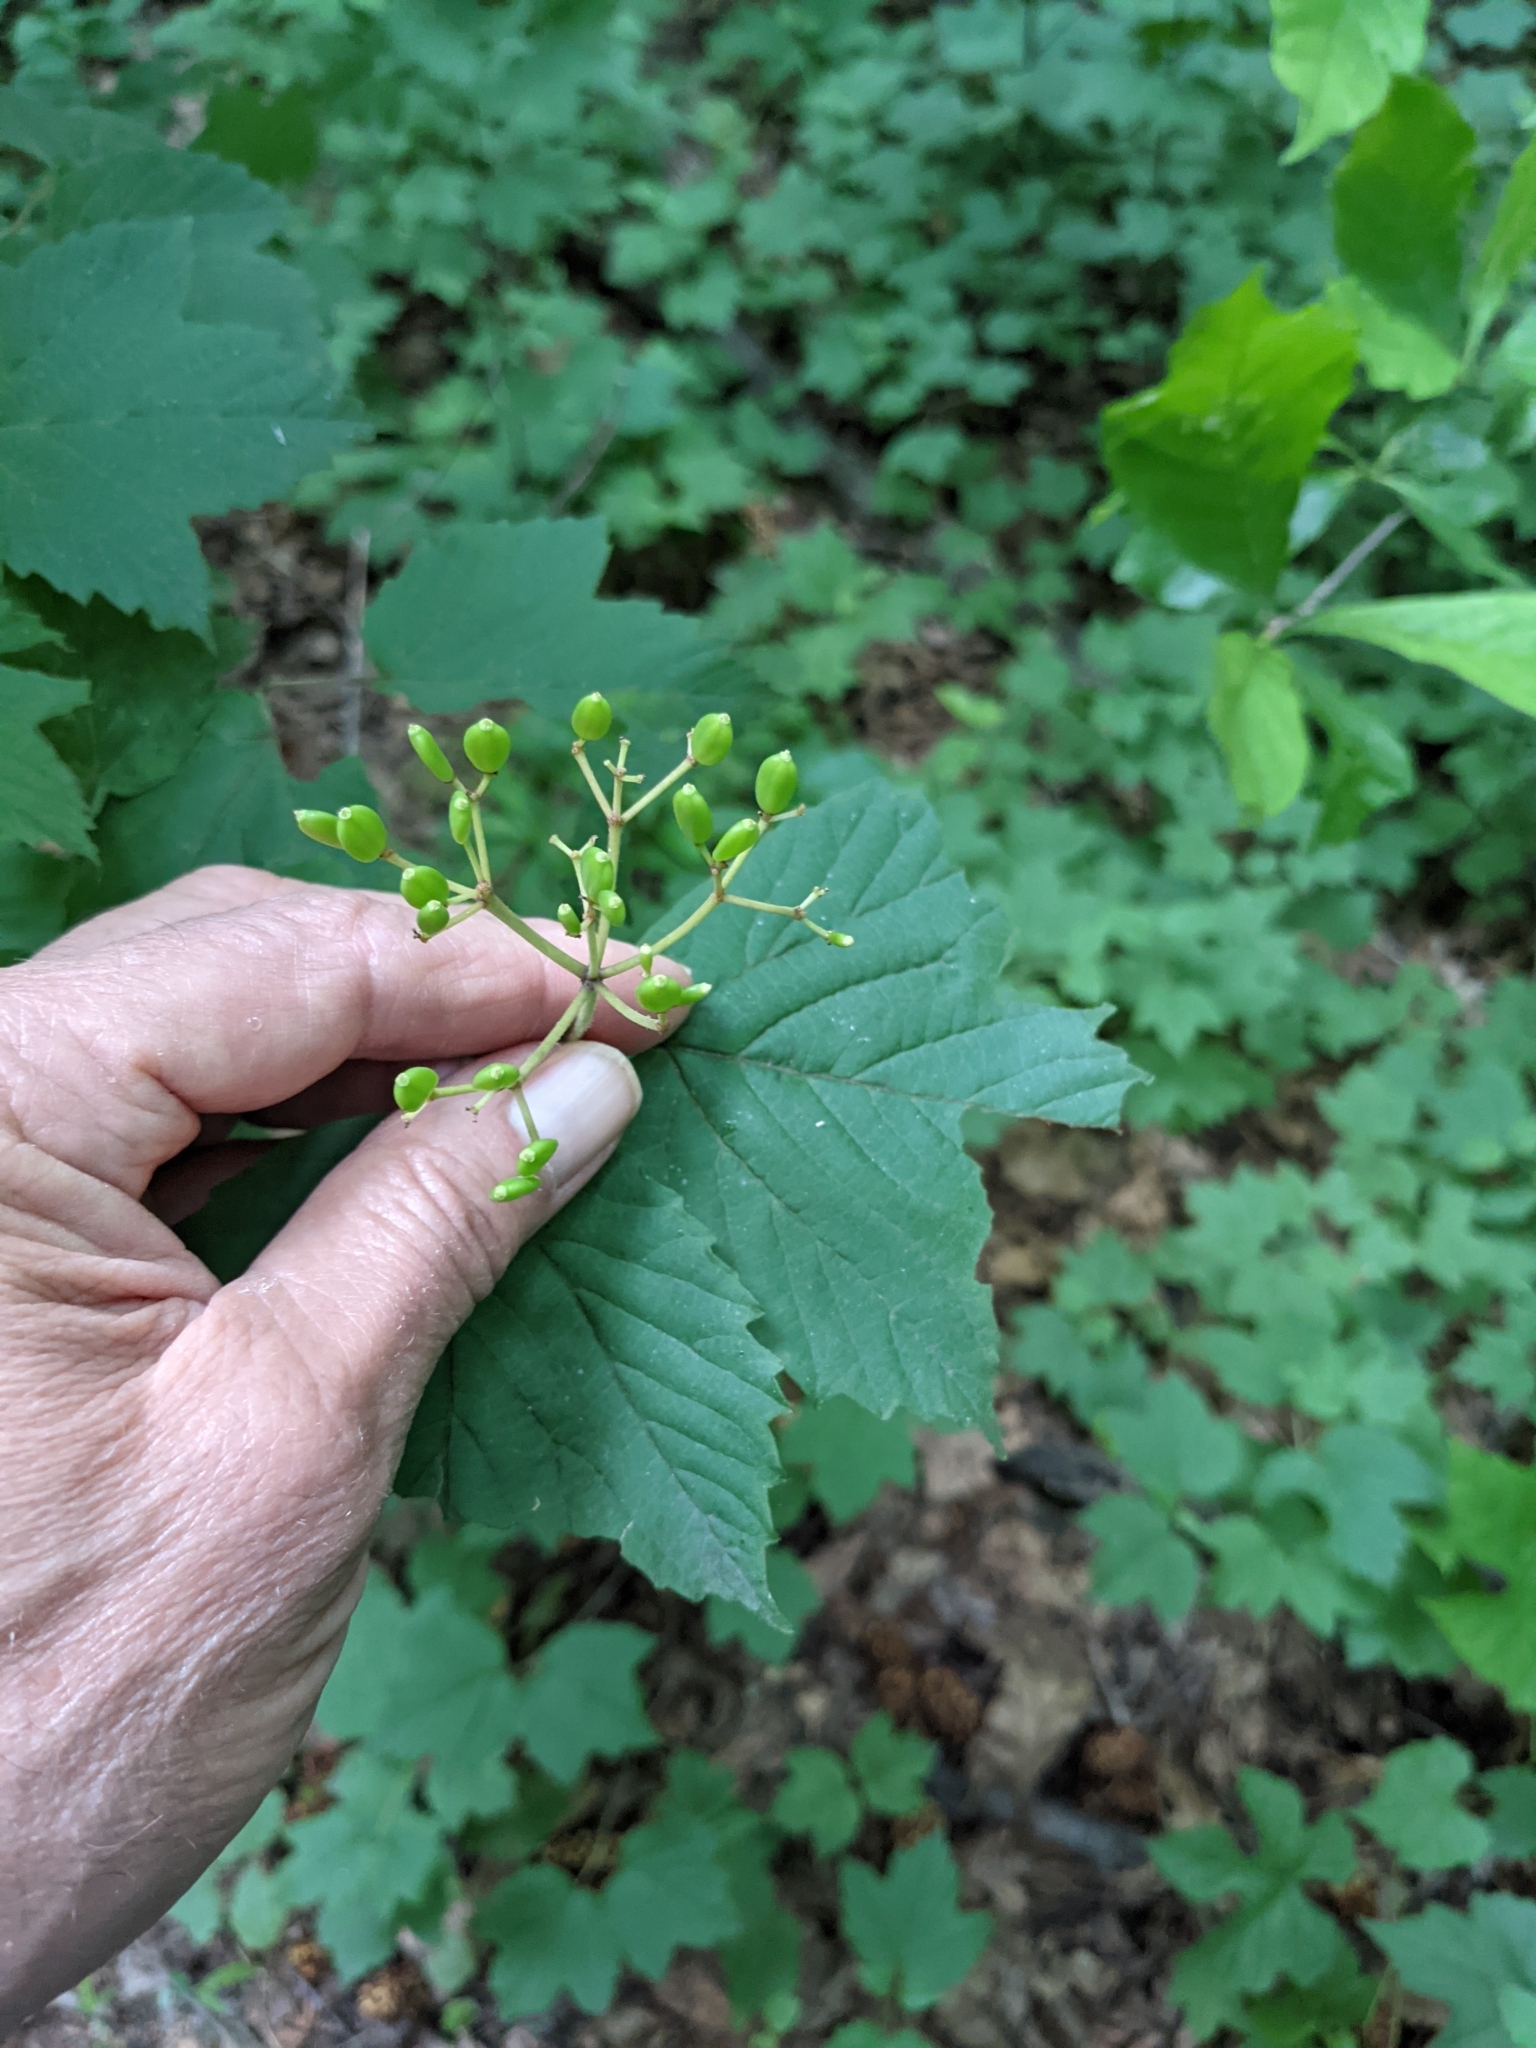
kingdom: Plantae
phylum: Tracheophyta
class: Magnoliopsida
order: Dipsacales
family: Viburnaceae
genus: Viburnum
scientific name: Viburnum acerifolium
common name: Dockmackie
